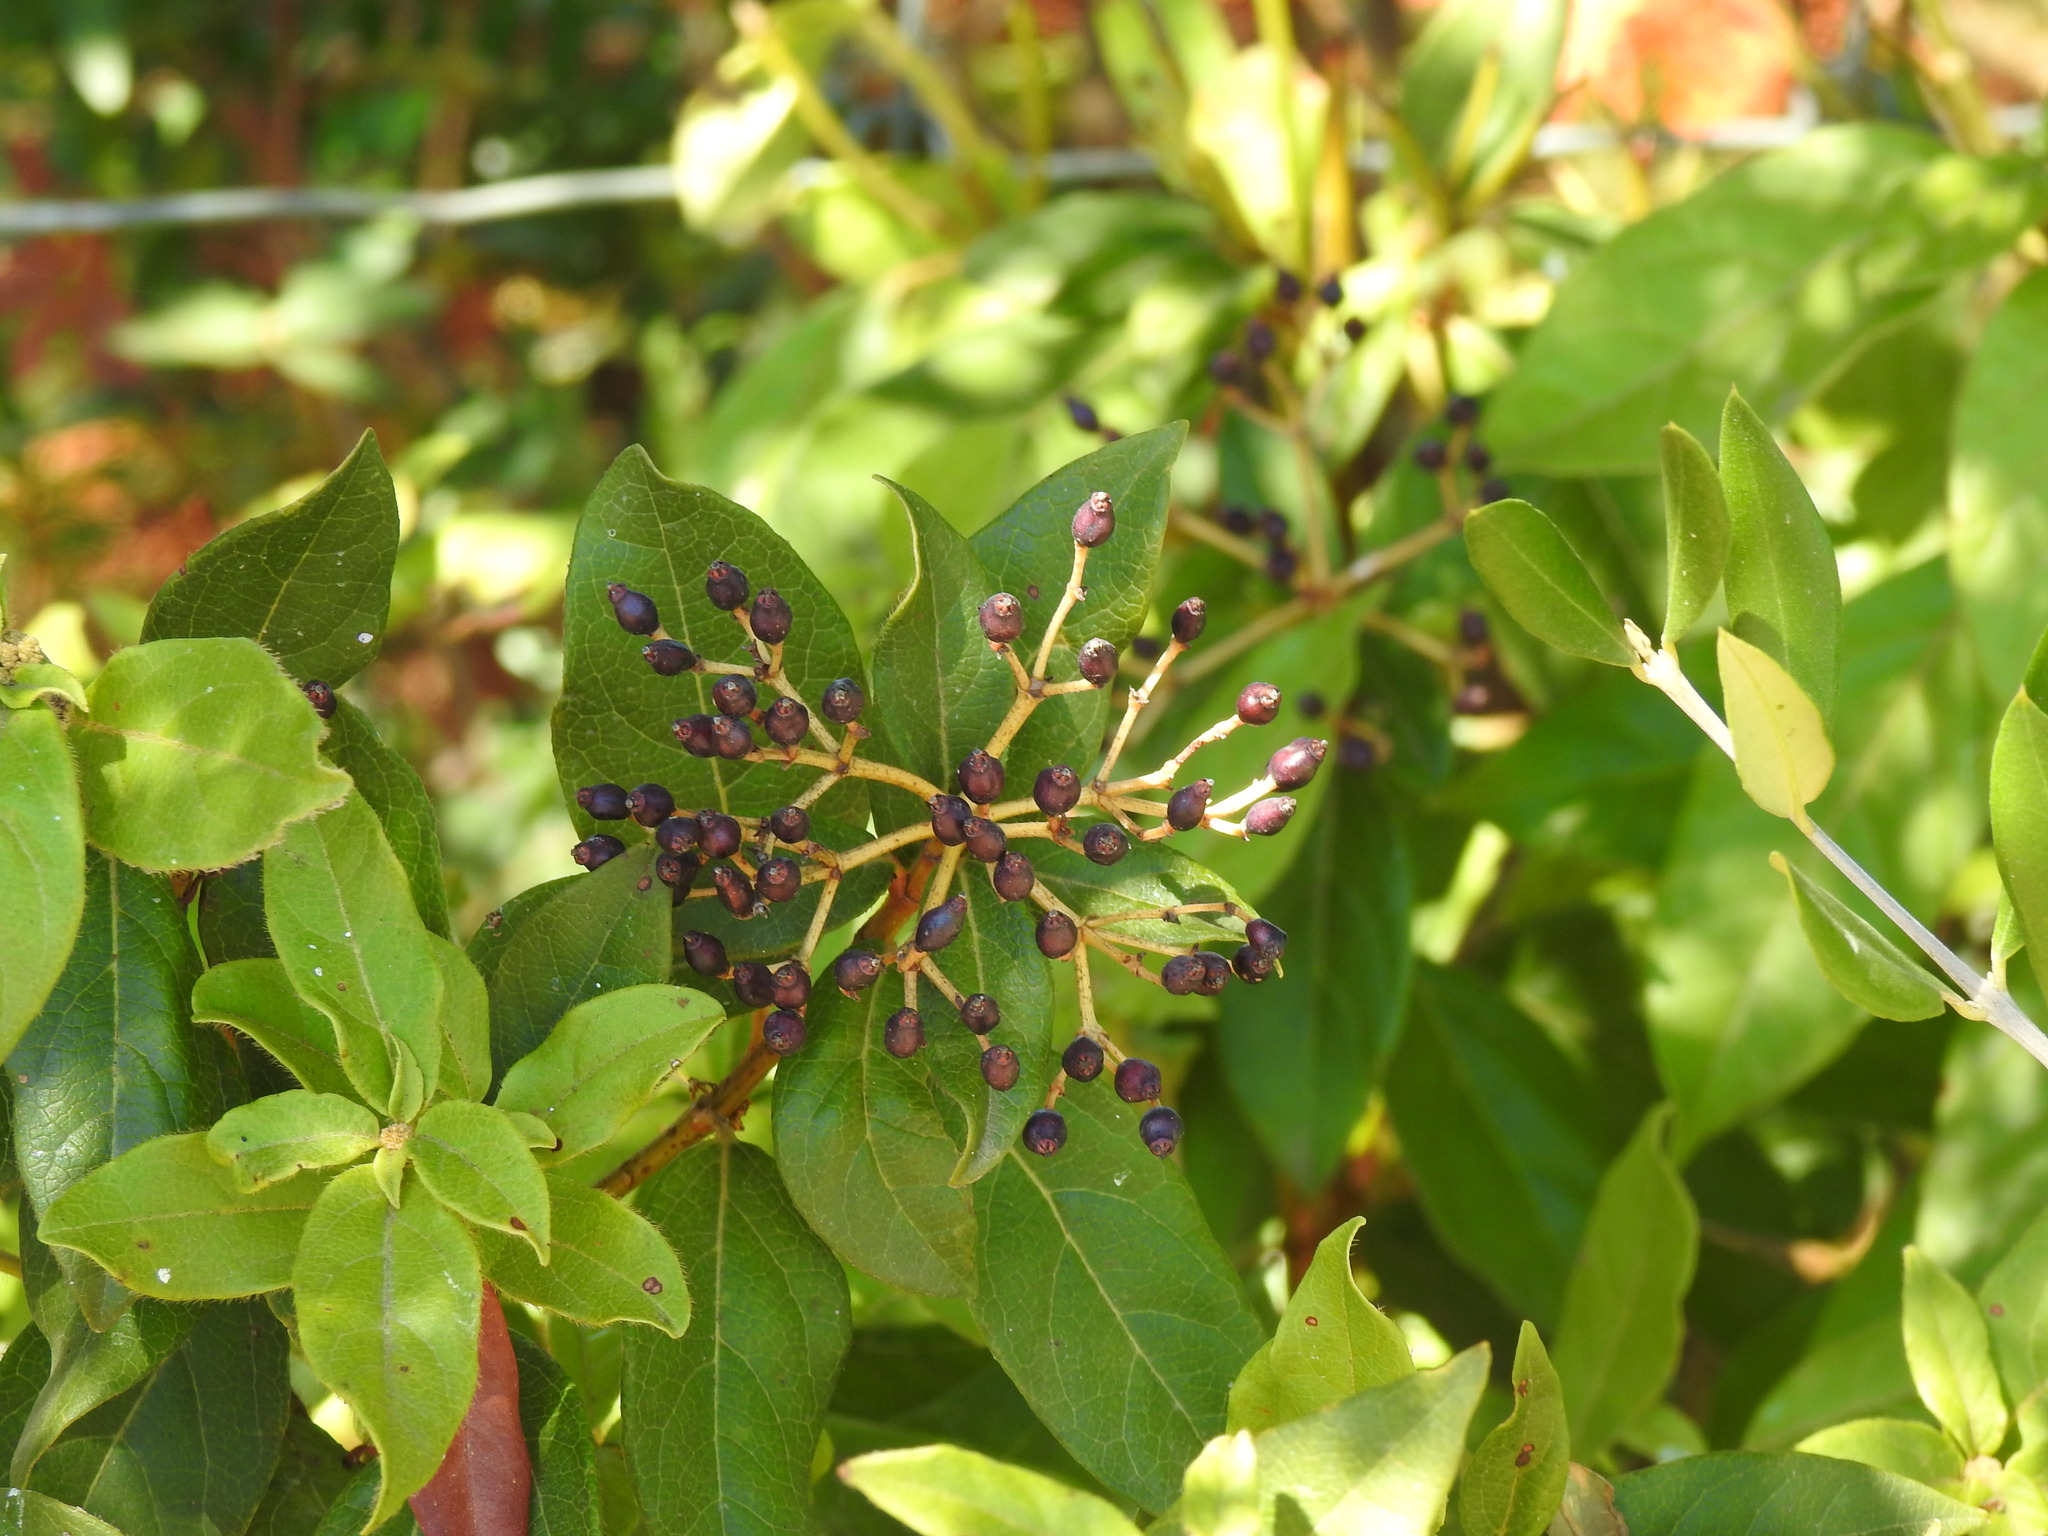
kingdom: Plantae
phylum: Tracheophyta
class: Magnoliopsida
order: Dipsacales
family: Viburnaceae
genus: Viburnum
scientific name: Viburnum tinus
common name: Laurustinus
